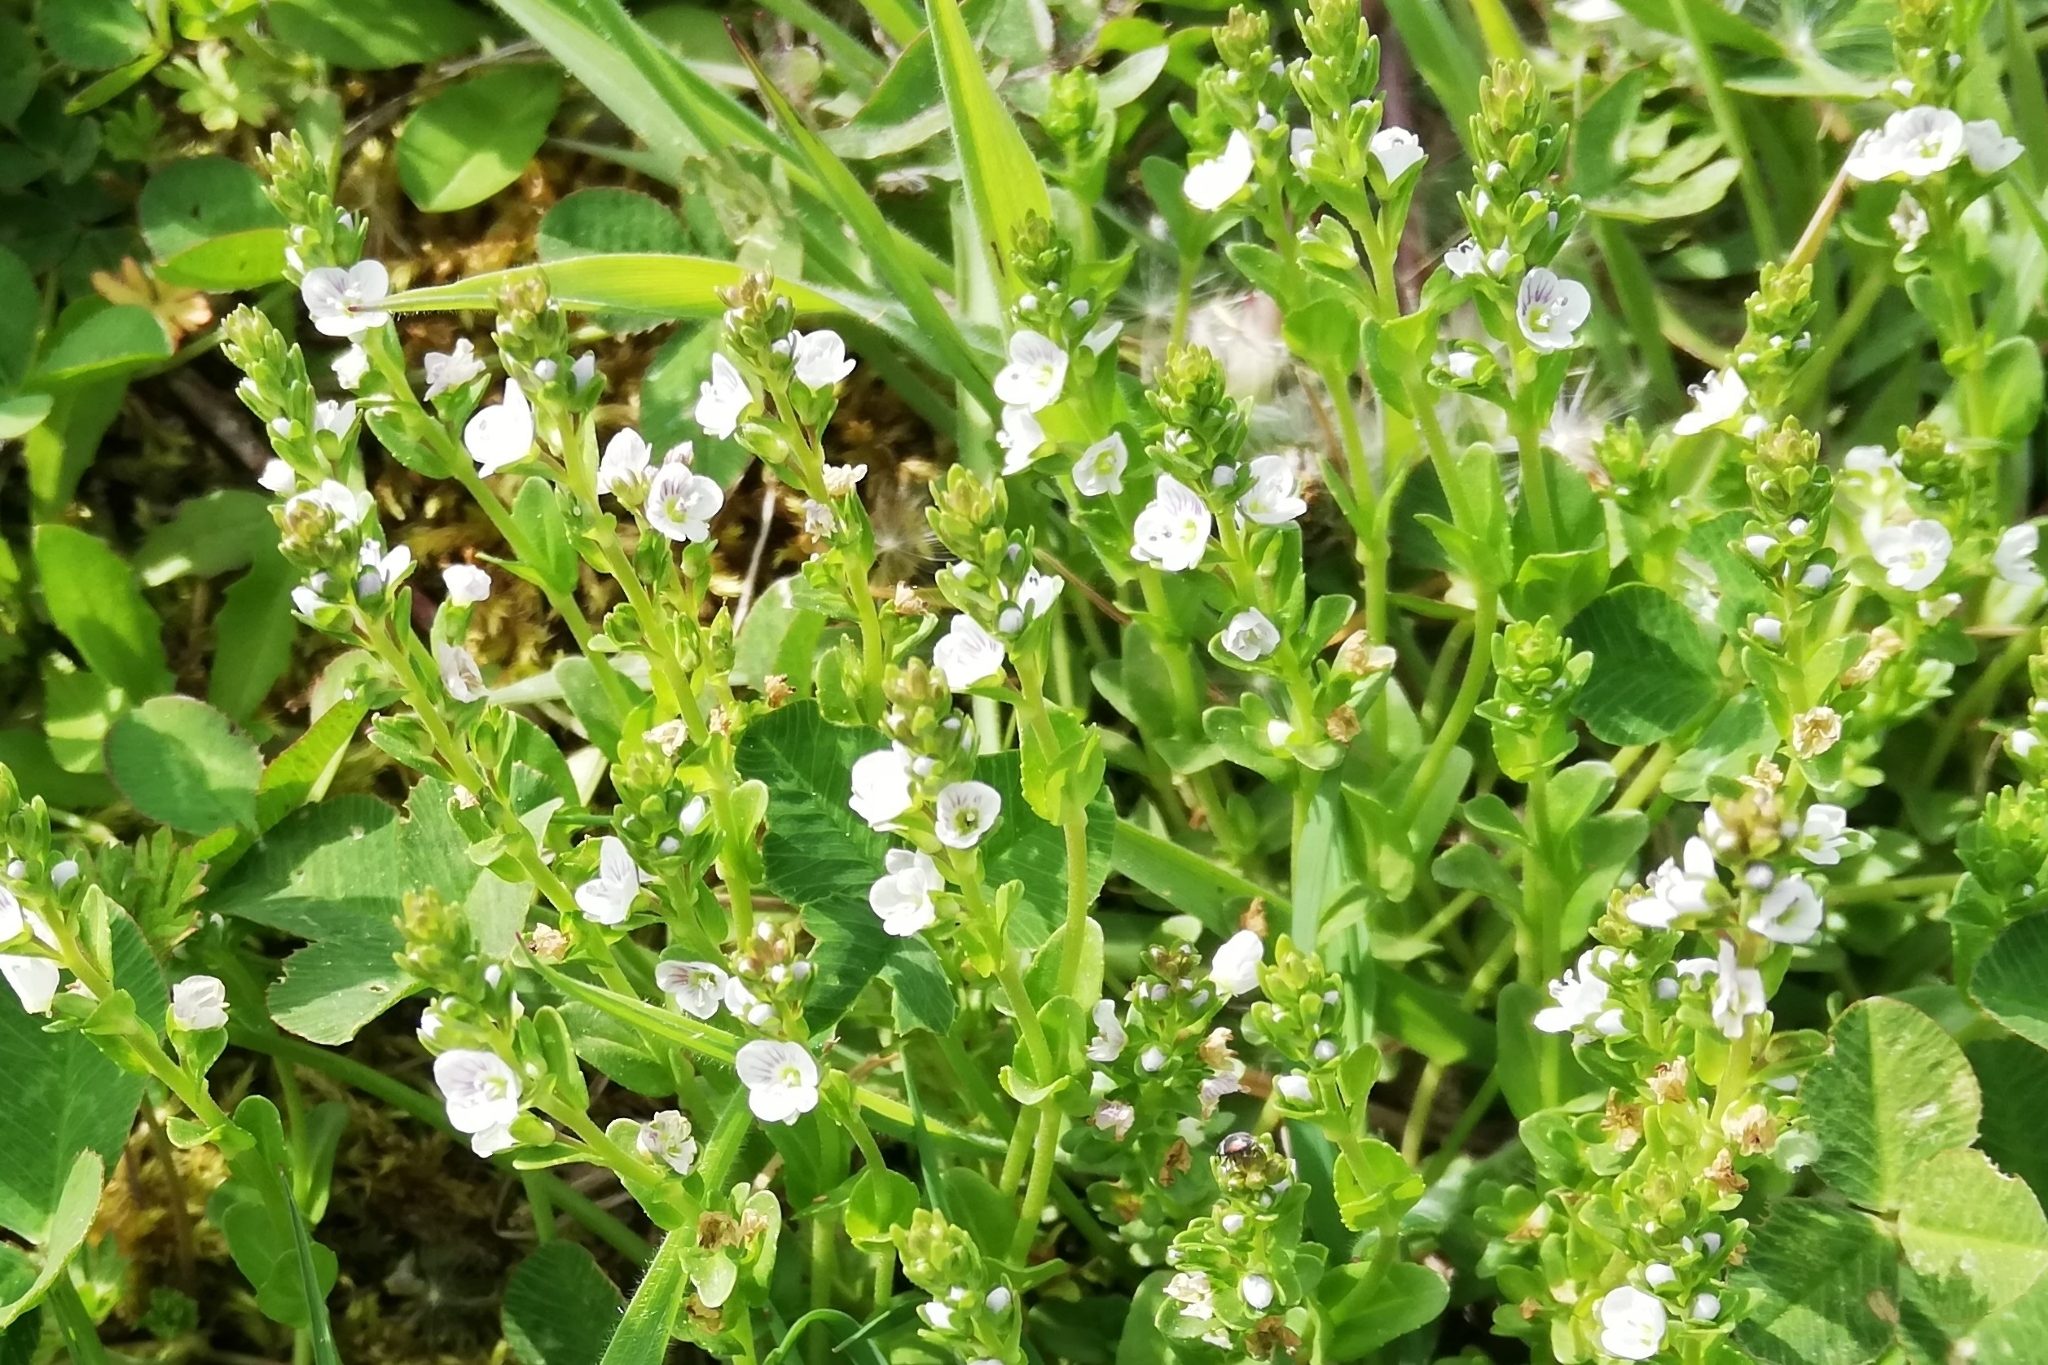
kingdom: Plantae
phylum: Tracheophyta
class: Magnoliopsida
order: Lamiales
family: Plantaginaceae
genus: Veronica
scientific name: Veronica serpyllifolia
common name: Thyme-leaved speedwell
